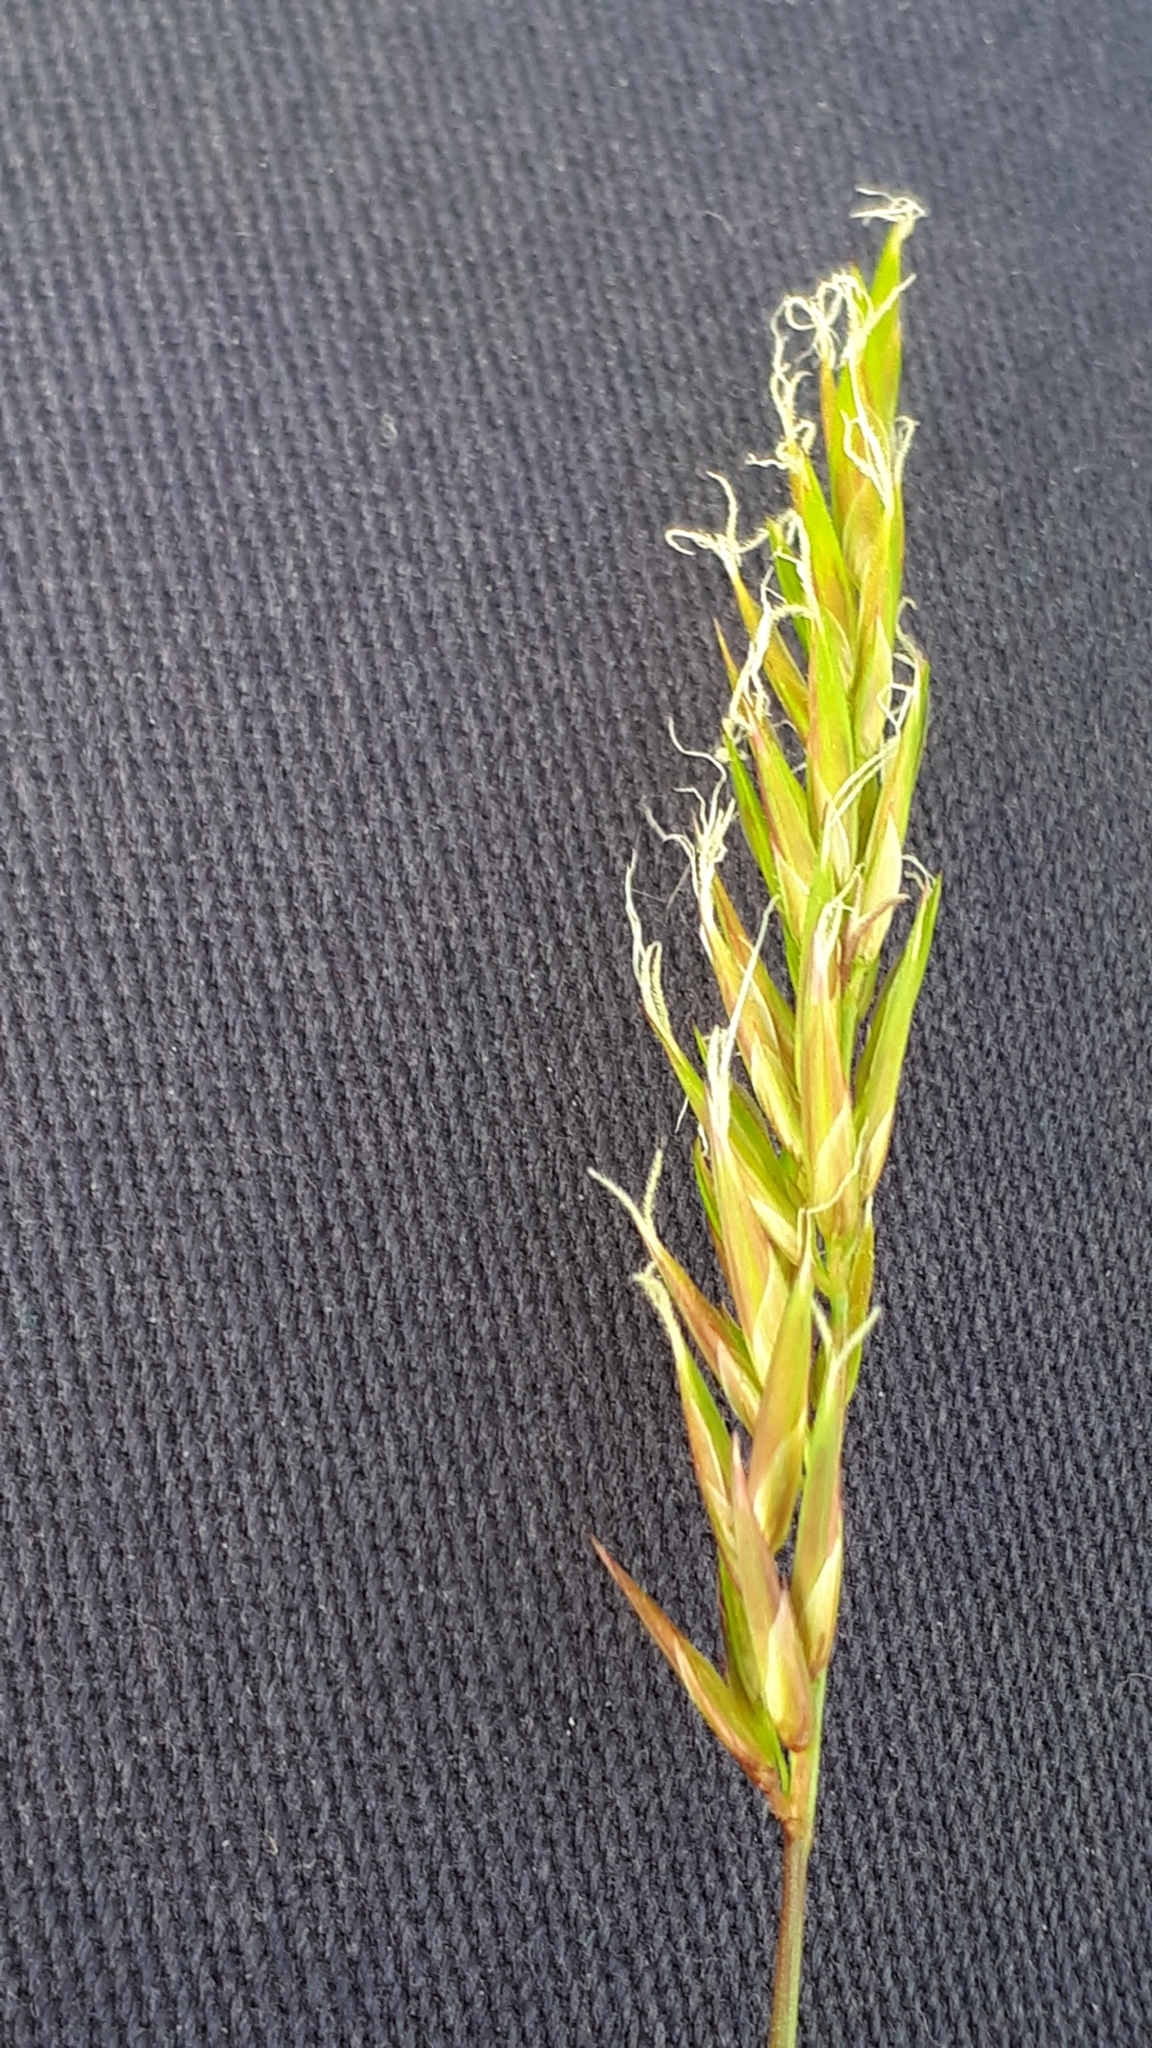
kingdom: Plantae
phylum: Tracheophyta
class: Liliopsida
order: Poales
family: Poaceae
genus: Anthoxanthum
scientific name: Anthoxanthum odoratum
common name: Sweet vernalgrass
